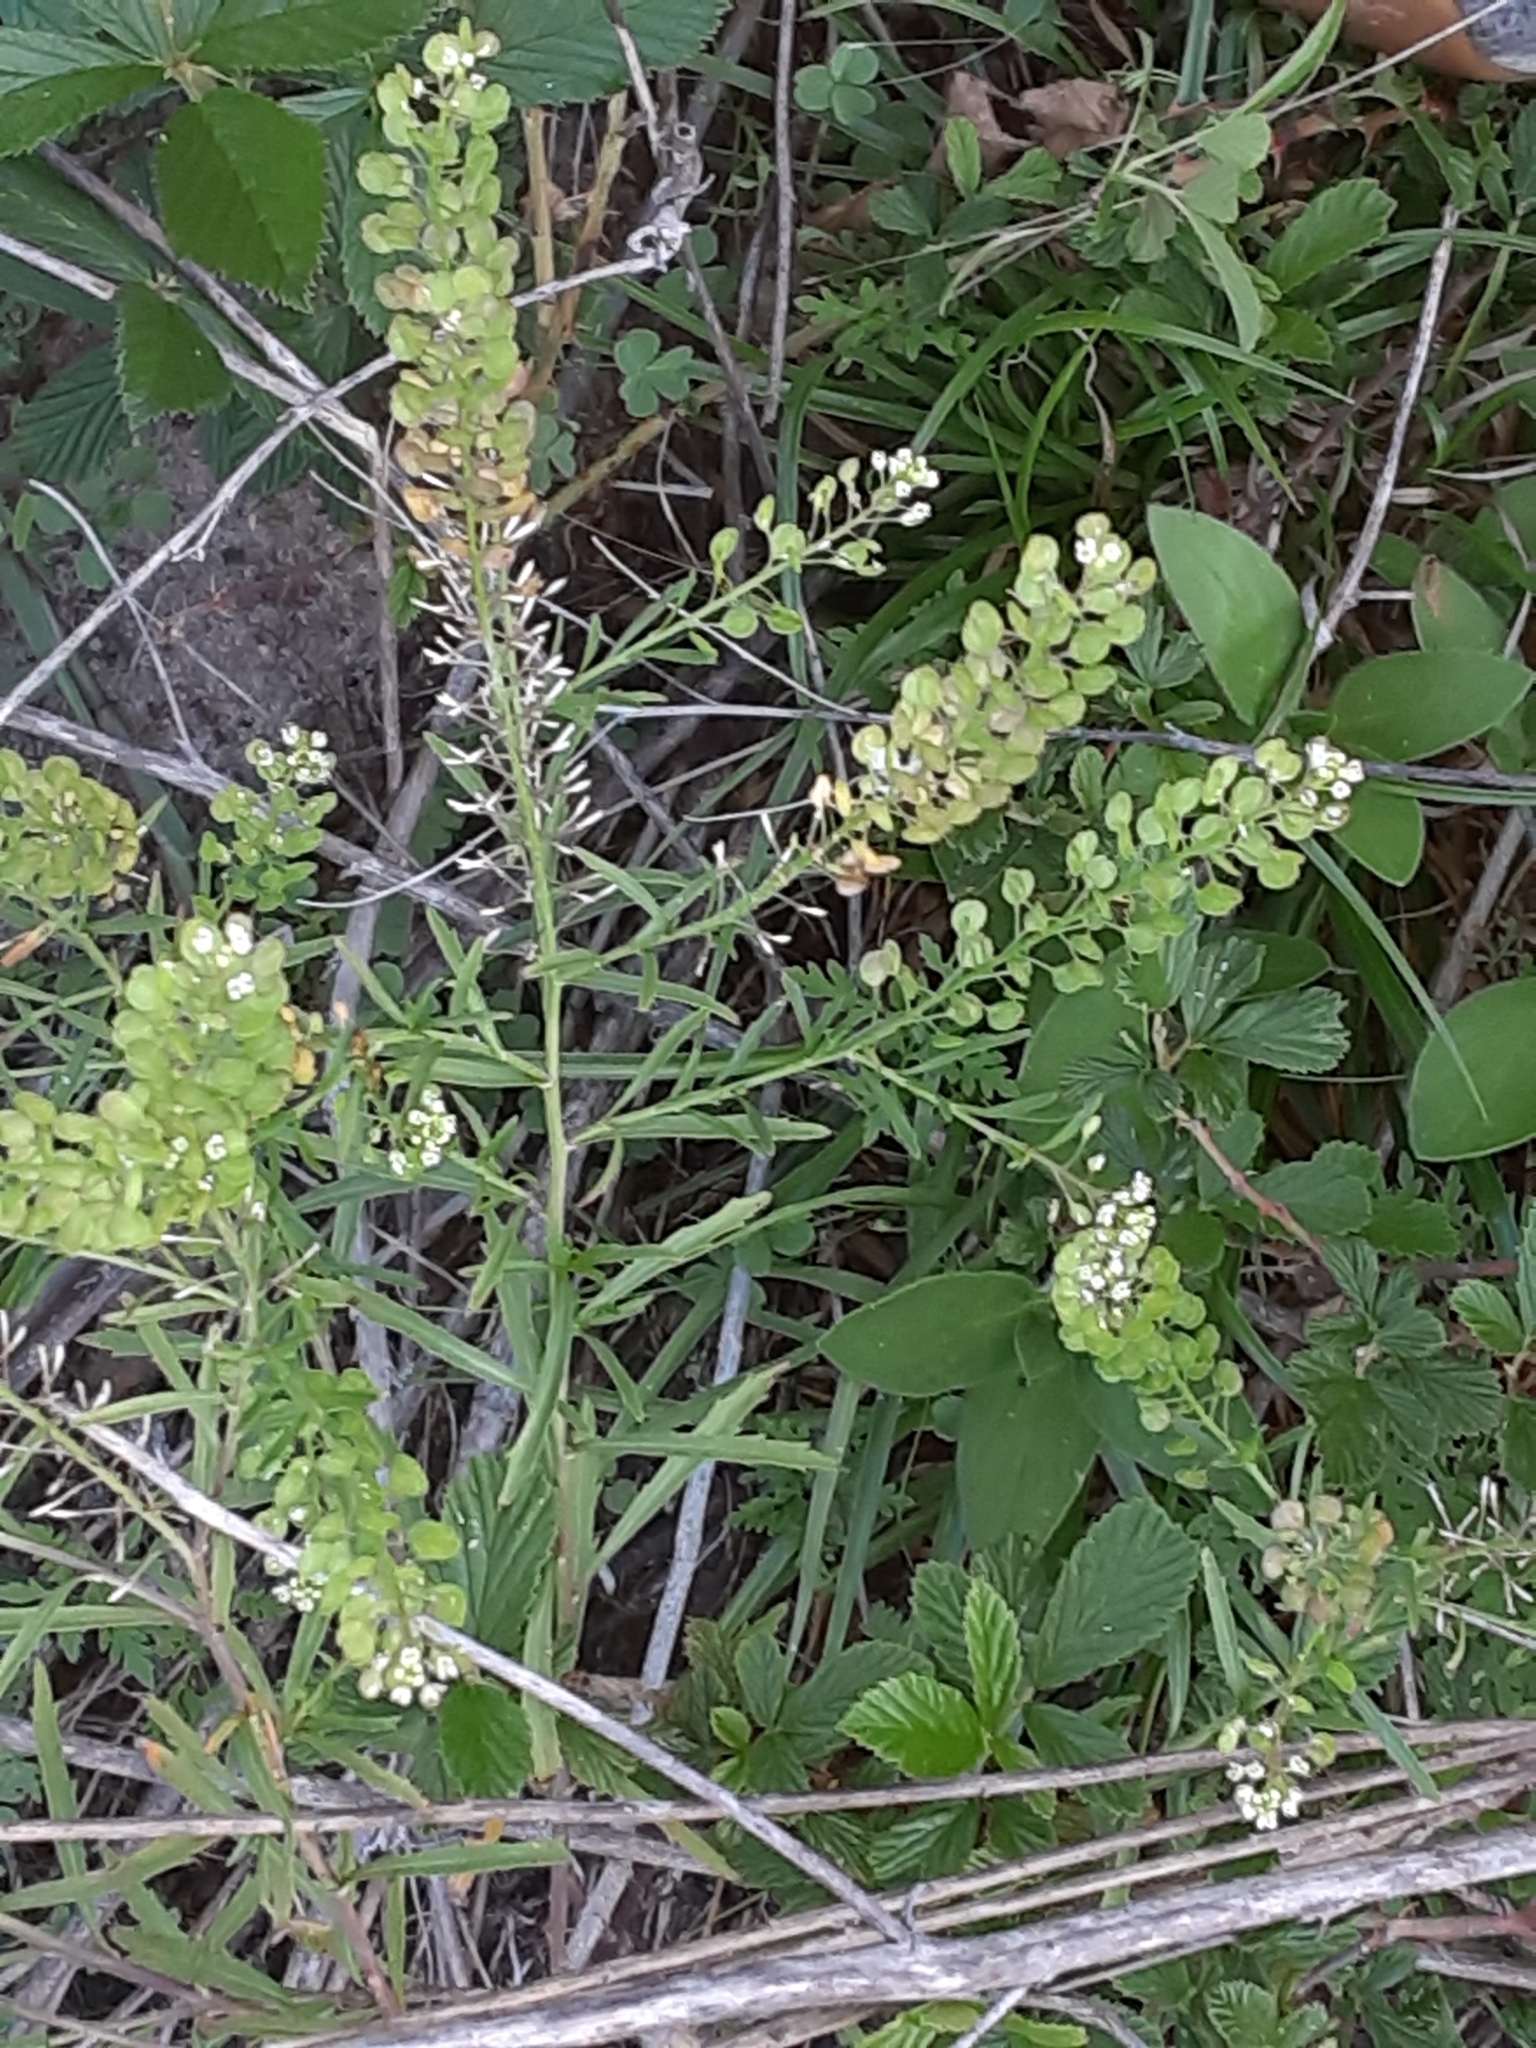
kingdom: Plantae
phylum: Tracheophyta
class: Magnoliopsida
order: Brassicales
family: Brassicaceae
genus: Lepidium
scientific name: Lepidium virginicum
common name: Least pepperwort
